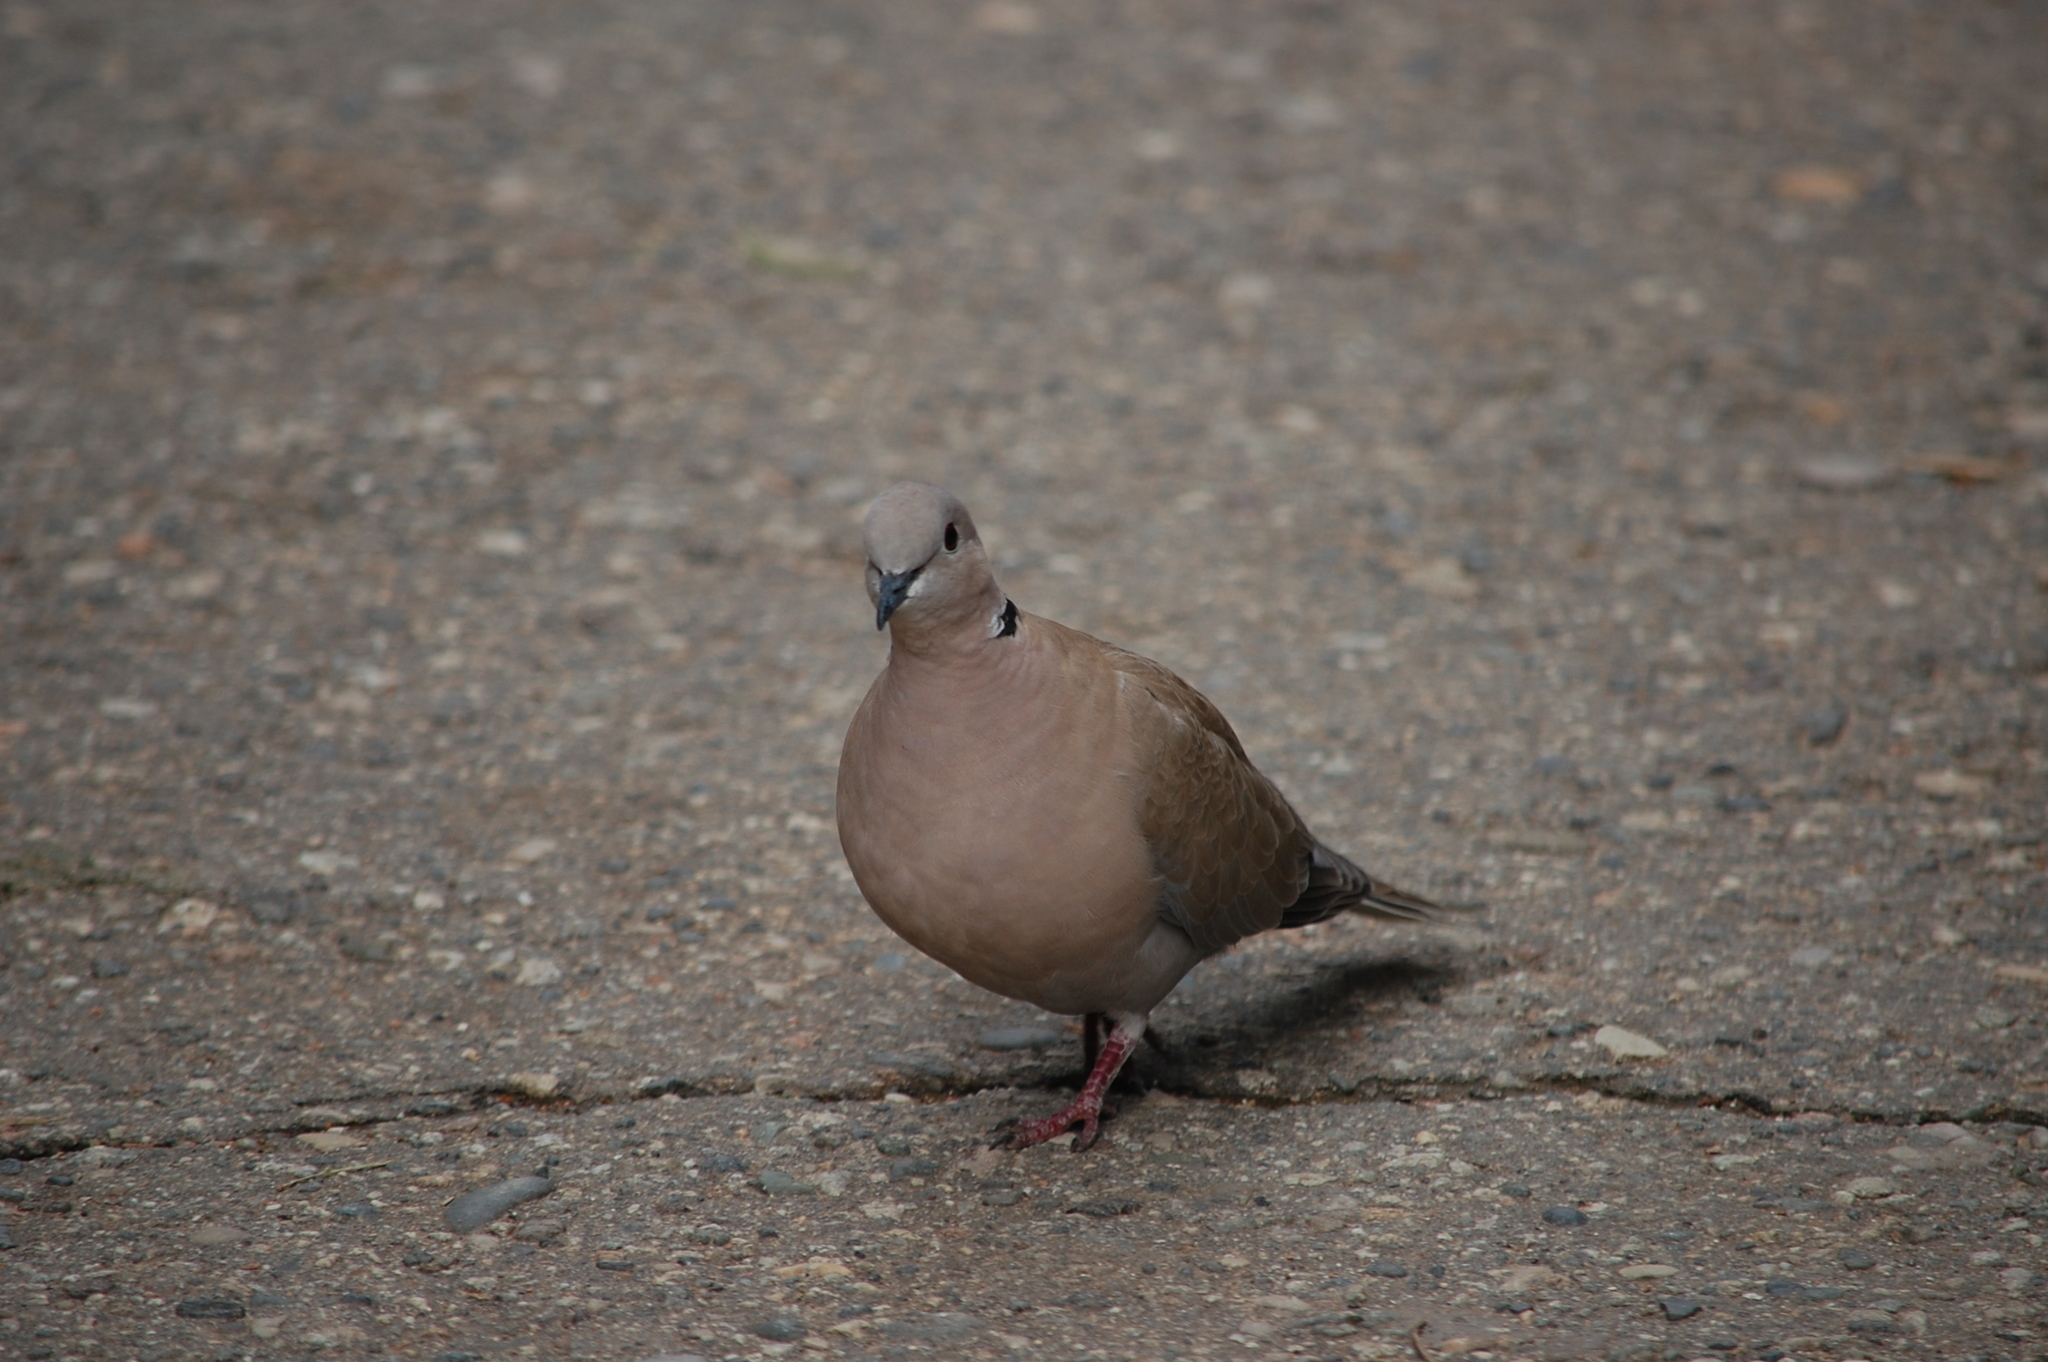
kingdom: Animalia
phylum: Chordata
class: Aves
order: Columbiformes
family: Columbidae
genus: Streptopelia
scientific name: Streptopelia decaocto
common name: Eurasian collared dove
